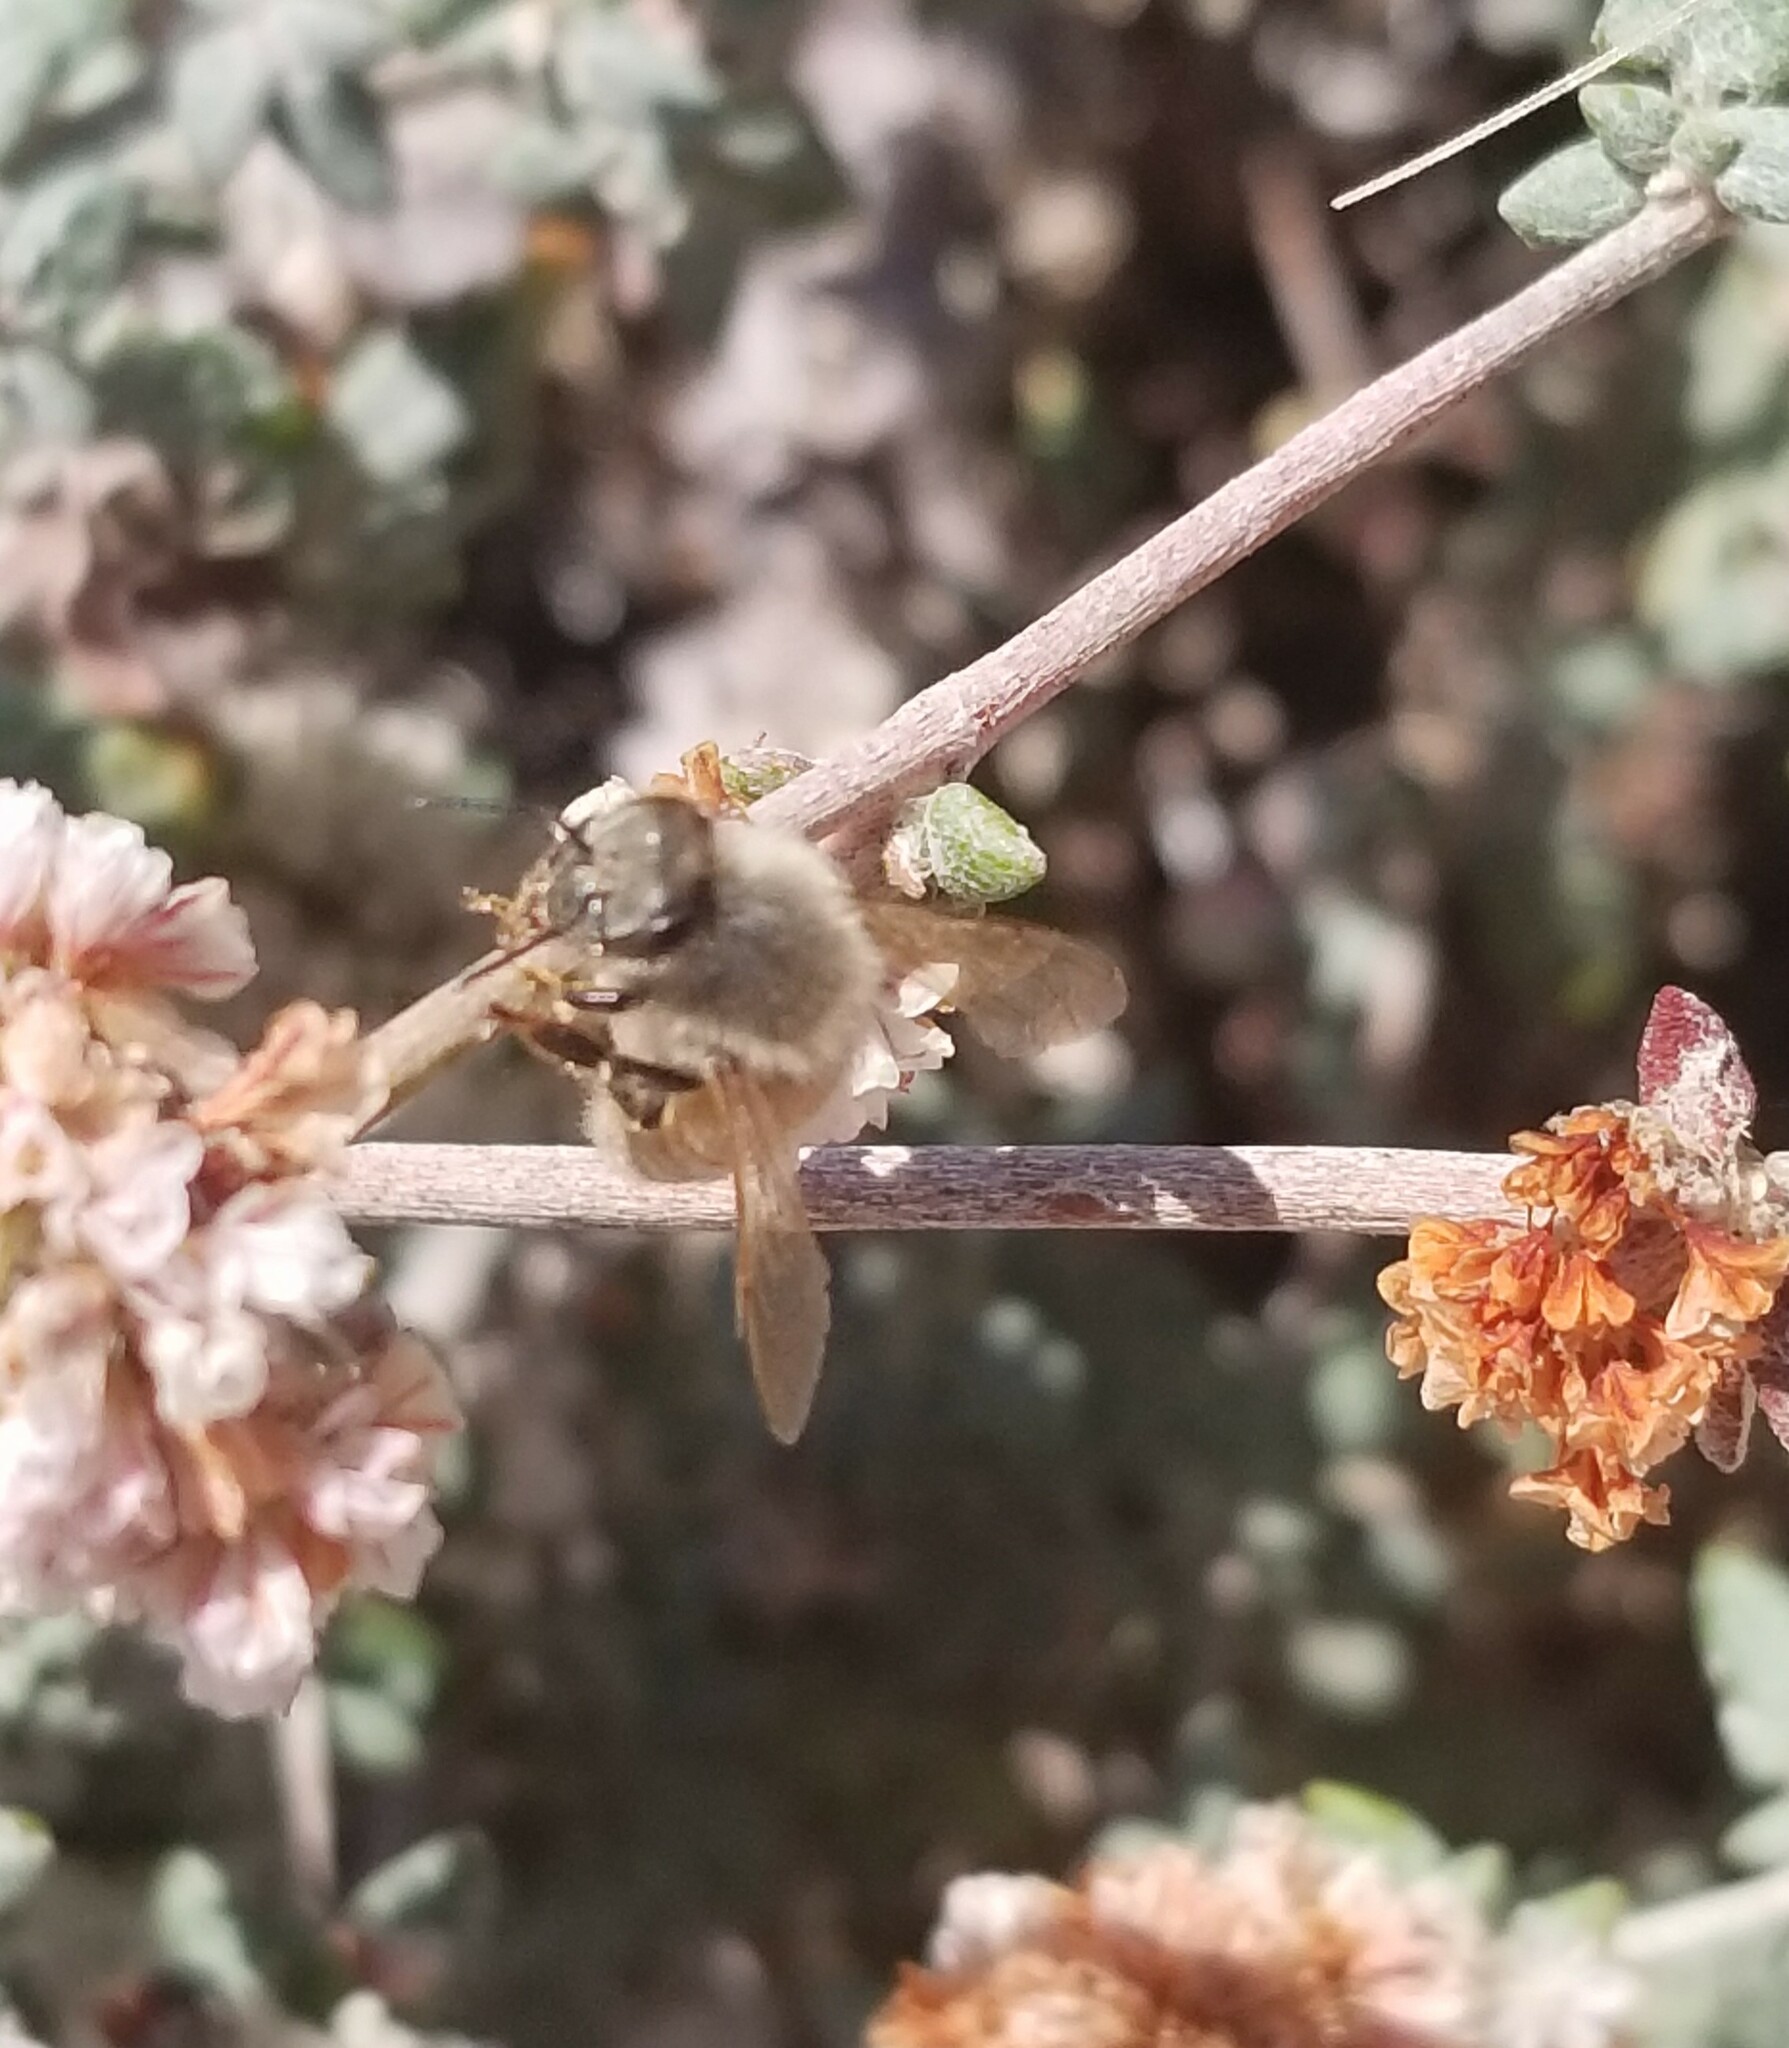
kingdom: Animalia
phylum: Arthropoda
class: Insecta
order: Hymenoptera
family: Apidae
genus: Apis
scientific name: Apis mellifera
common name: Honey bee
